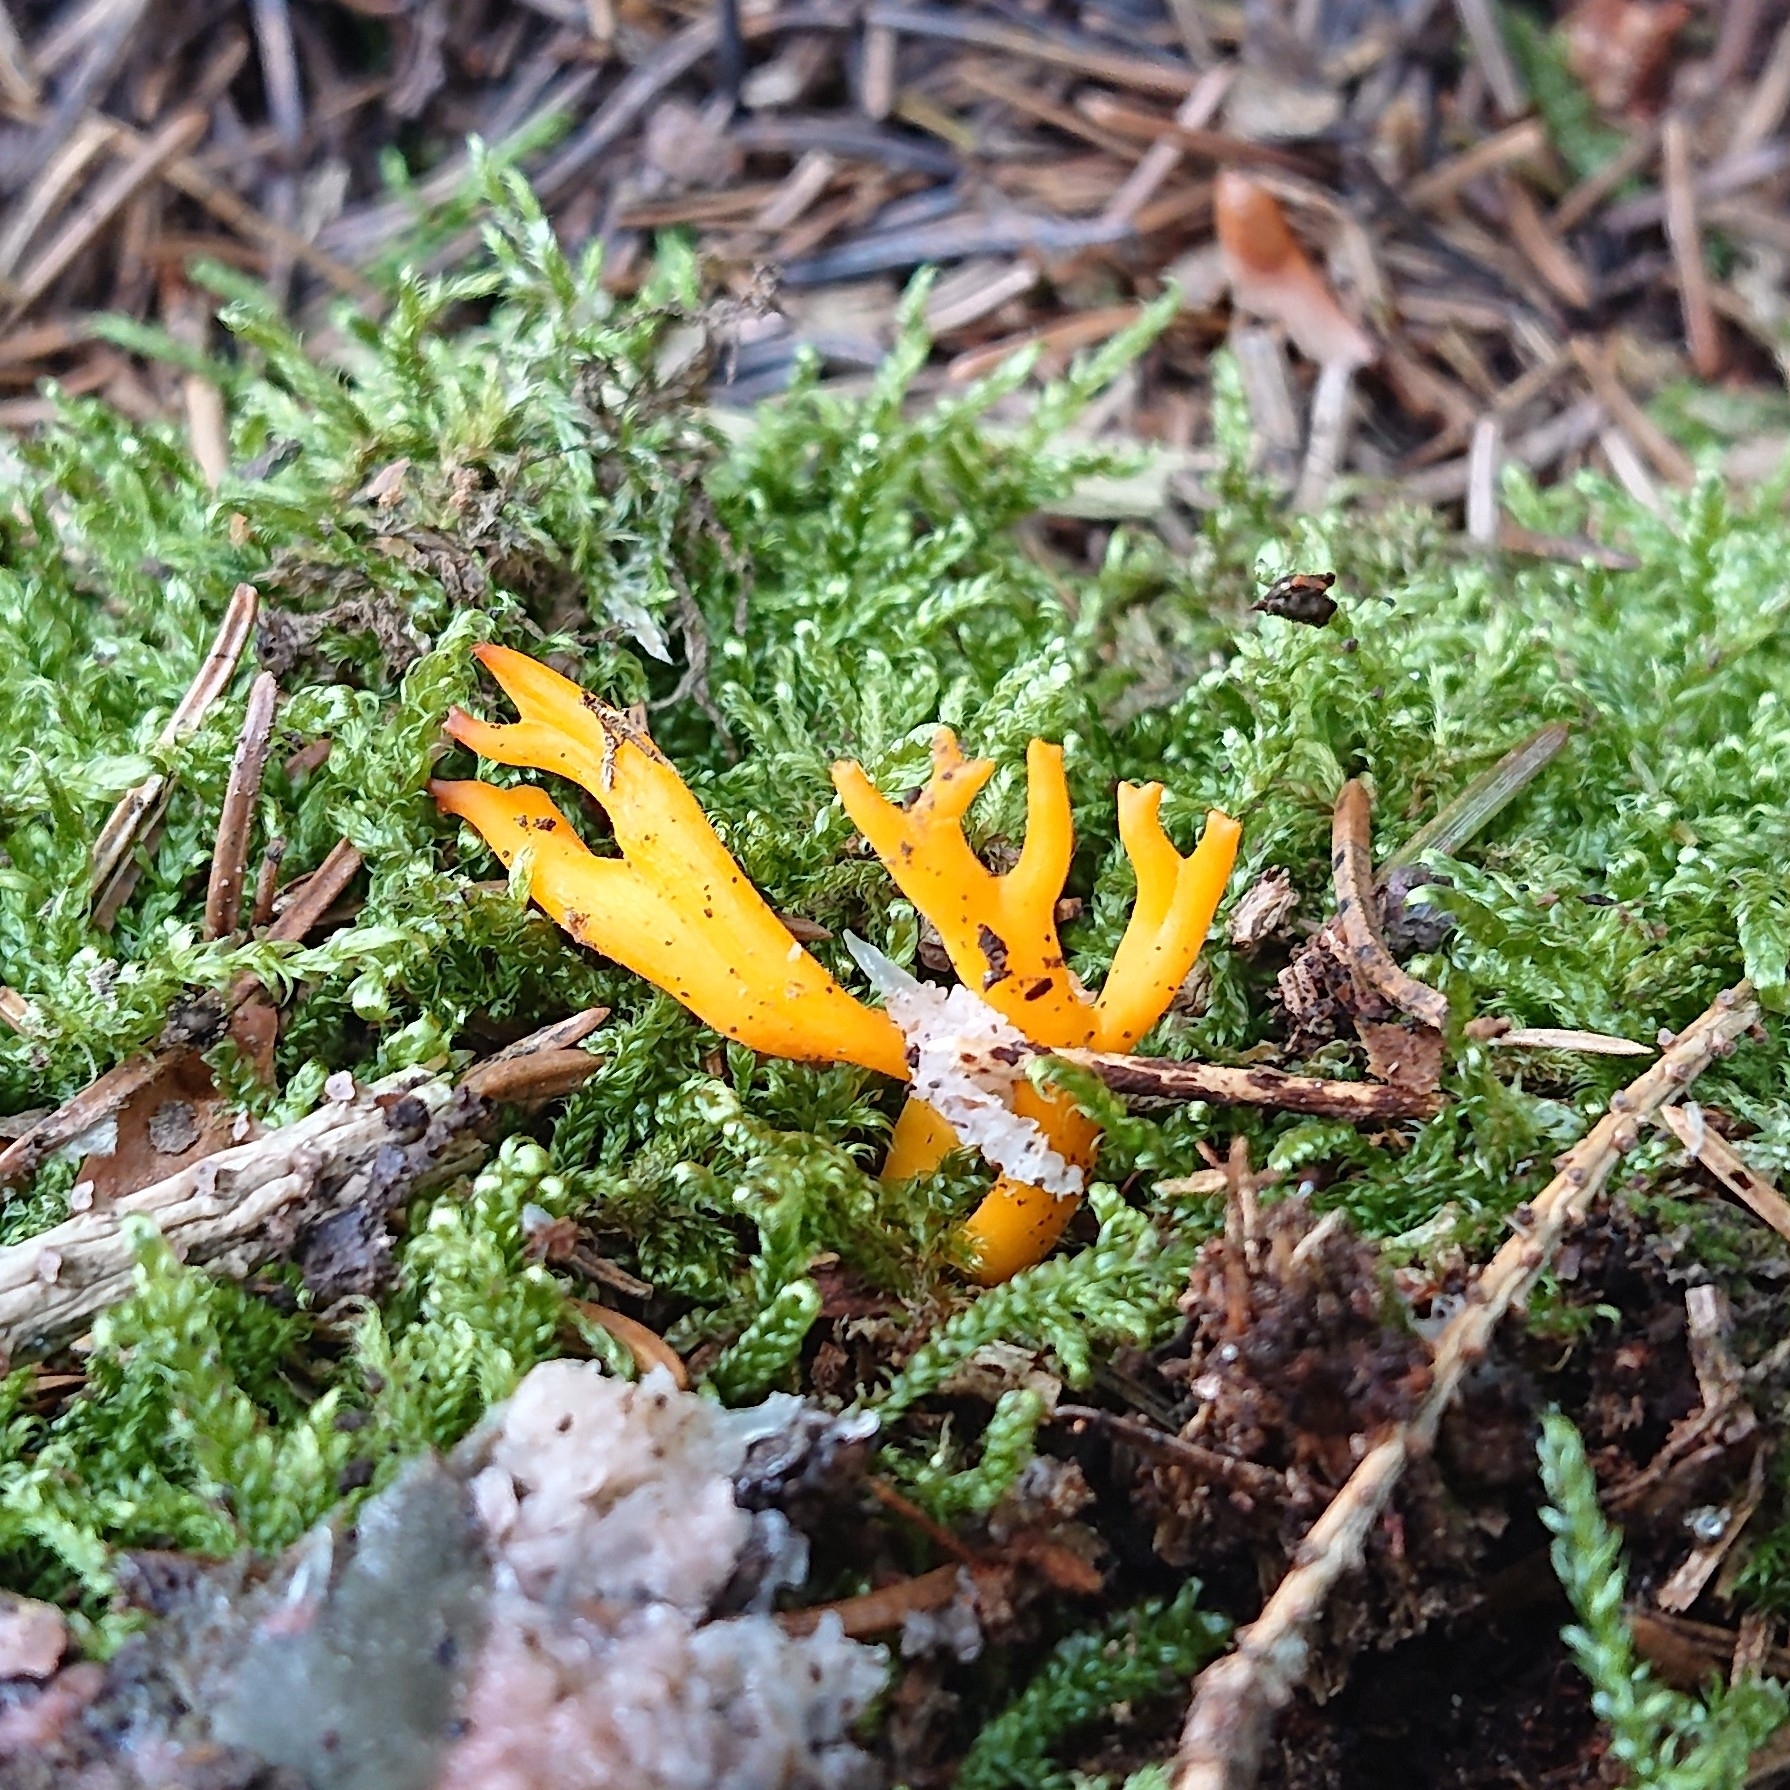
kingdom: Fungi
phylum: Basidiomycota
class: Dacrymycetes
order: Dacrymycetales
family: Dacrymycetaceae
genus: Calocera
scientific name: Calocera viscosa
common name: Yellow stagshorn
